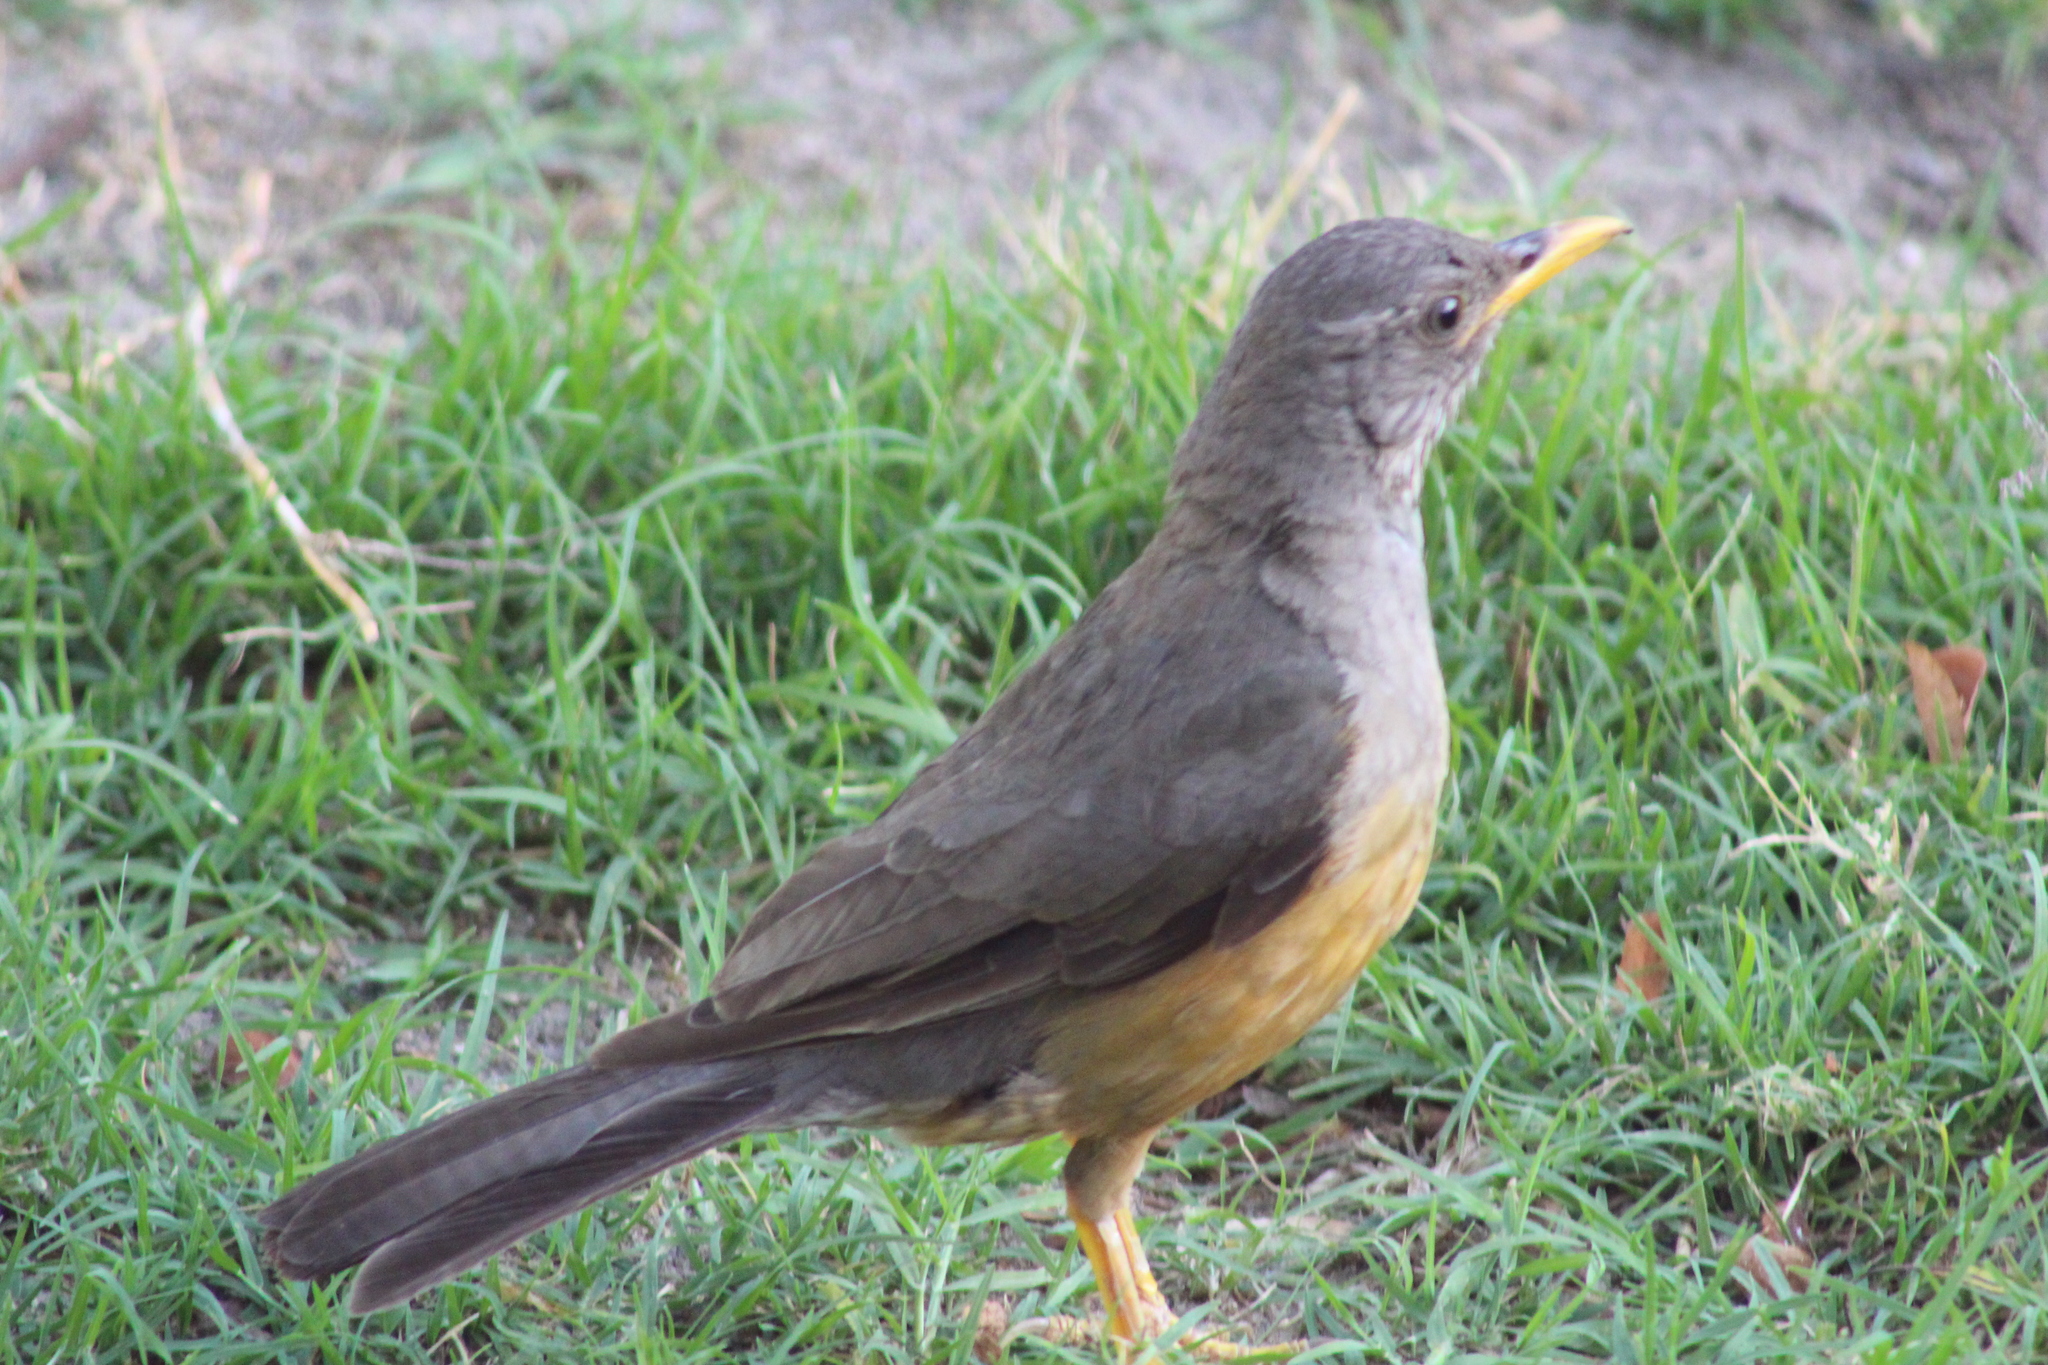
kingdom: Animalia
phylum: Chordata
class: Aves
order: Passeriformes
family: Turdidae
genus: Turdus
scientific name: Turdus olivaceus
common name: Olive thrush
